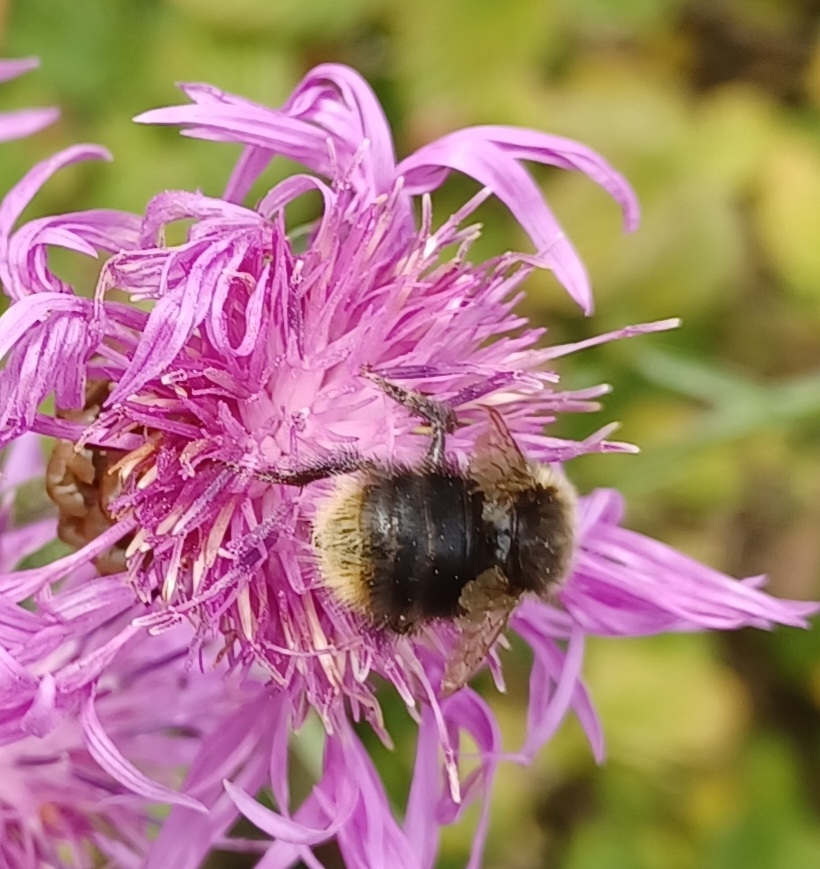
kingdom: Animalia
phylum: Arthropoda
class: Insecta
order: Hymenoptera
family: Apidae
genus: Bombus
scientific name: Bombus pratorum
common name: Early humble-bee
